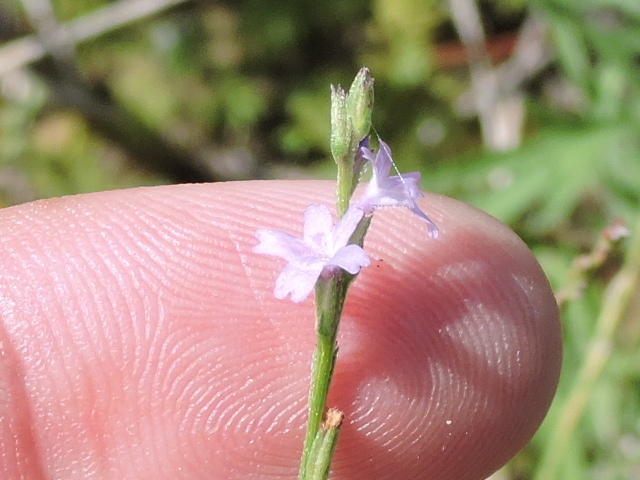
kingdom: Plantae
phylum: Tracheophyta
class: Magnoliopsida
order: Lamiales
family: Verbenaceae
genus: Verbena
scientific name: Verbena halei
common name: Texas vervain
